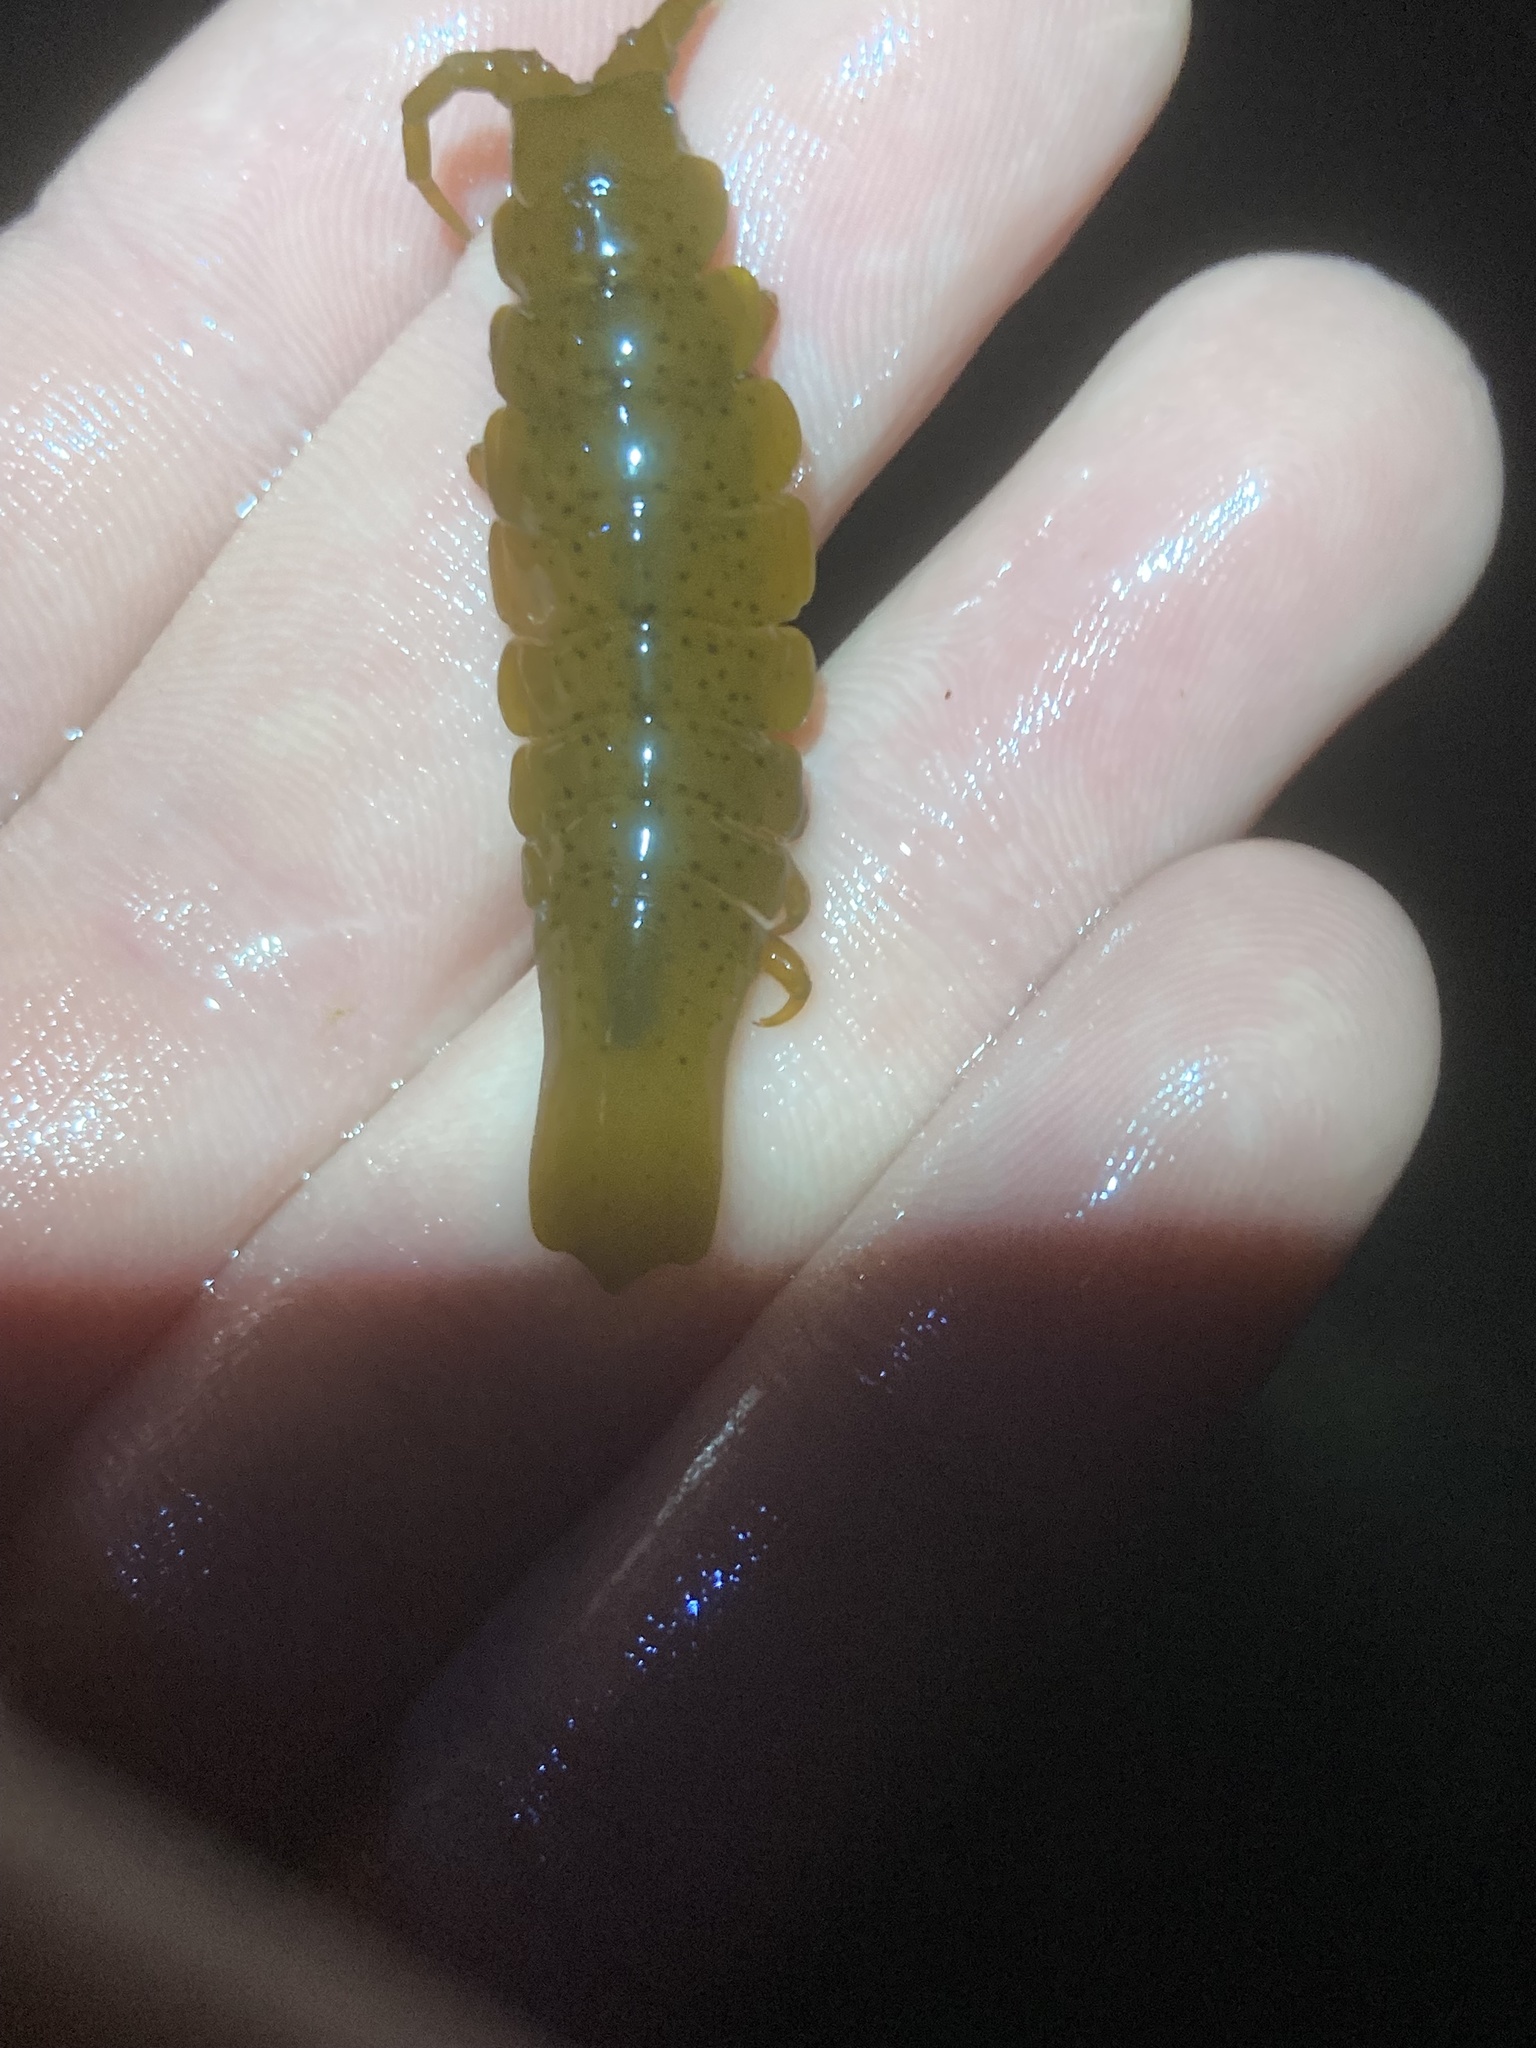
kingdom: Animalia
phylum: Arthropoda
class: Malacostraca
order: Isopoda
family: Idoteidae
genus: Pentidotea
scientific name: Pentidotea stenops
